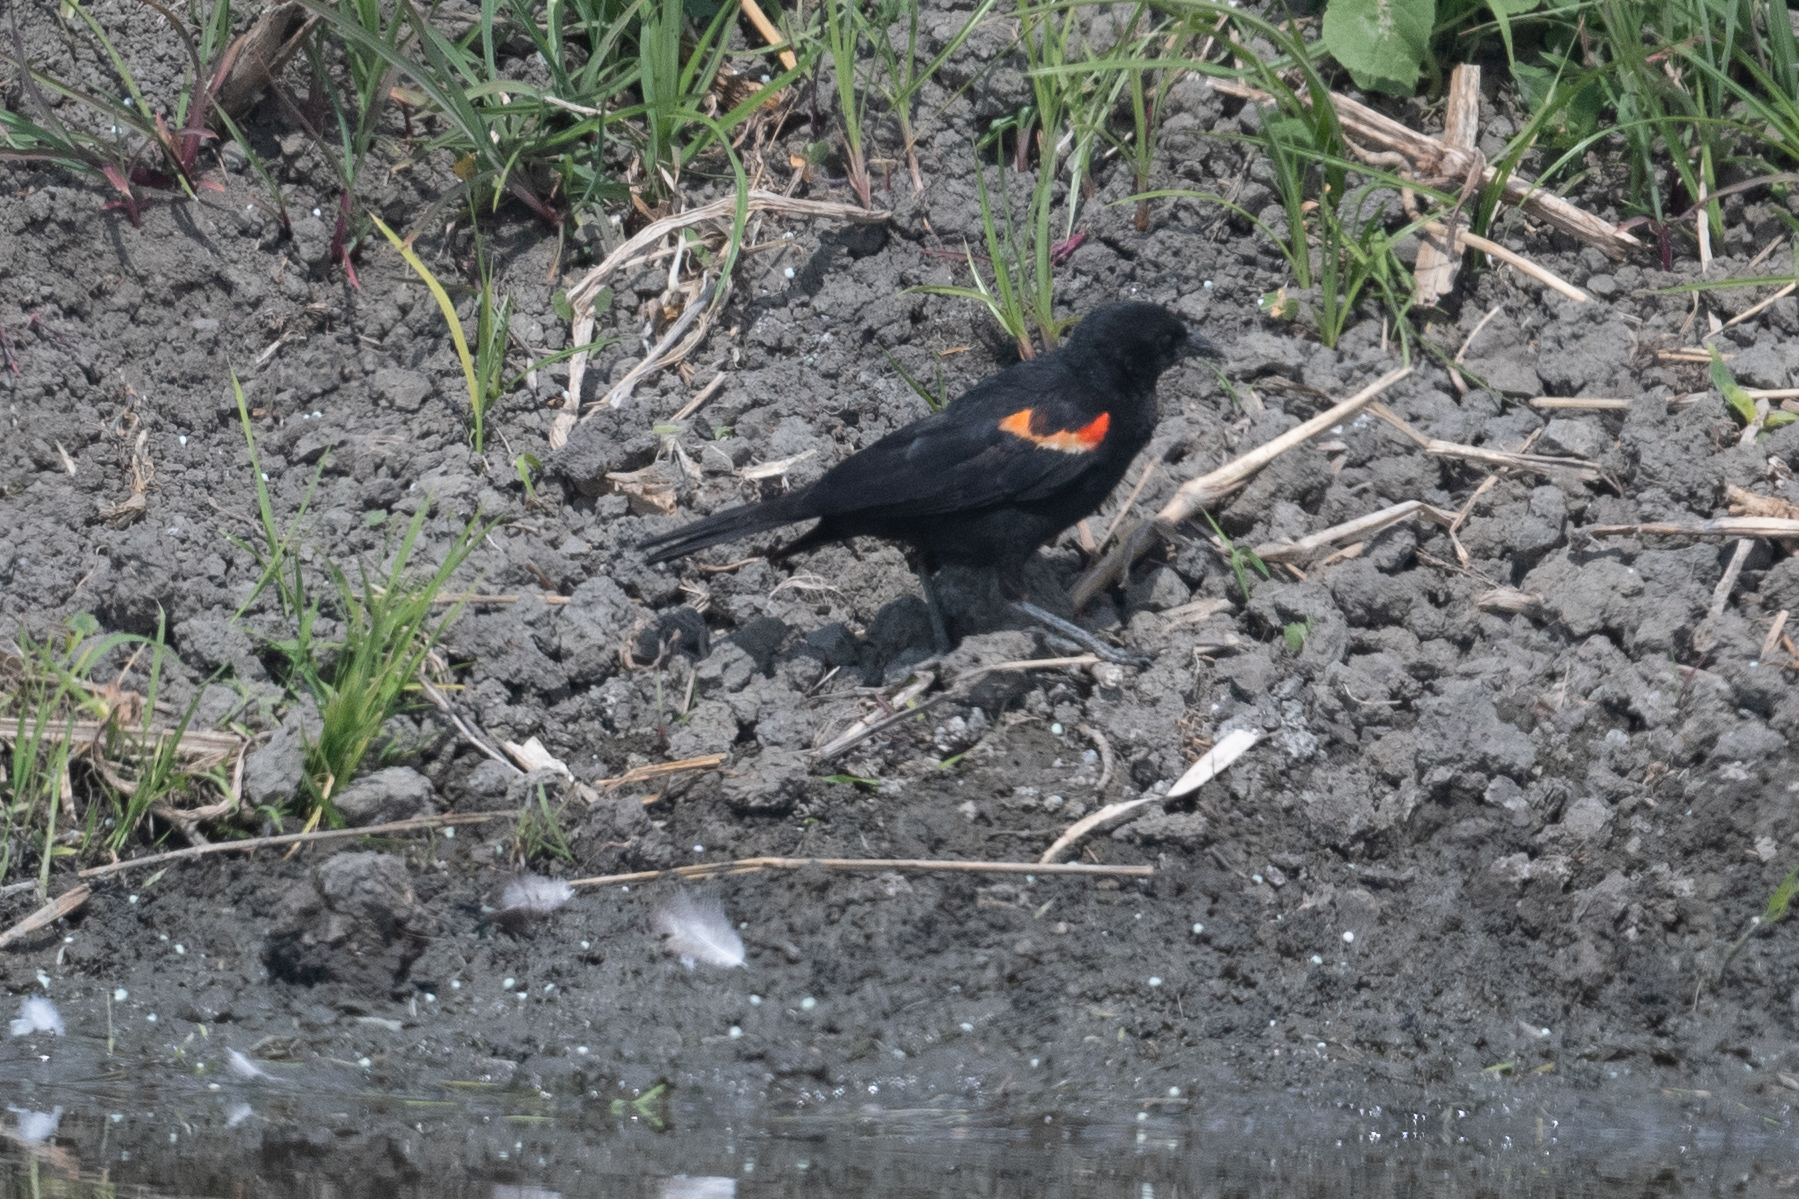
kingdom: Animalia
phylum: Chordata
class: Aves
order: Passeriformes
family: Icteridae
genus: Agelaius
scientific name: Agelaius phoeniceus
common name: Red-winged blackbird
